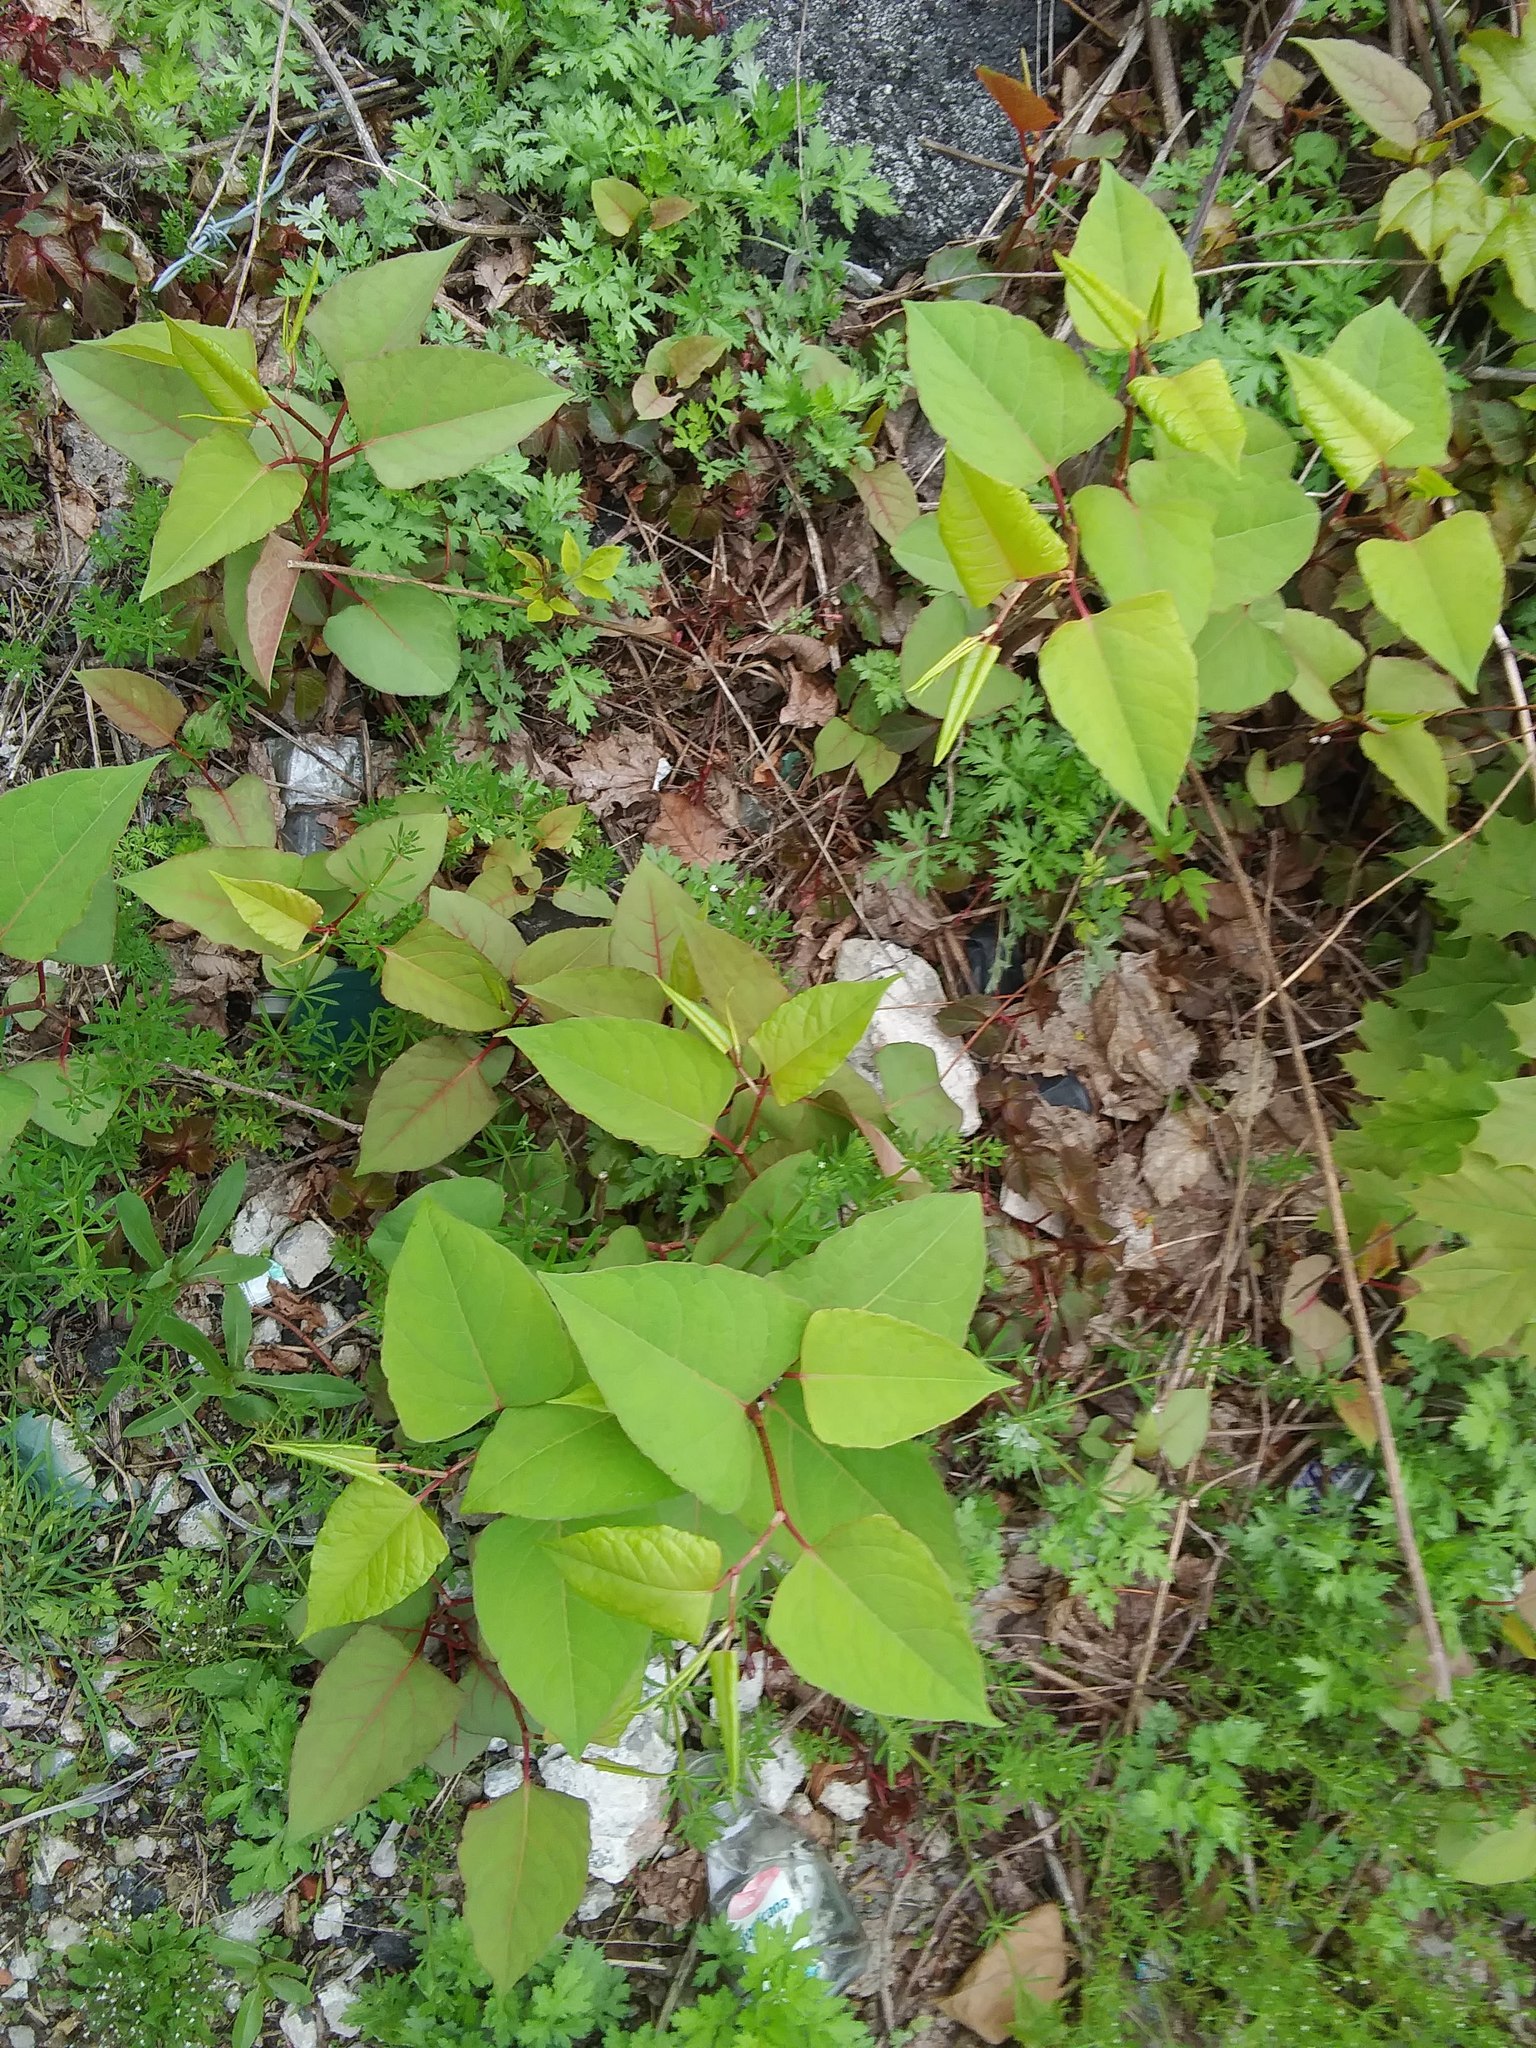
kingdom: Plantae
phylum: Tracheophyta
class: Magnoliopsida
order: Caryophyllales
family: Polygonaceae
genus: Reynoutria
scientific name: Reynoutria japonica
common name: Japanese knotweed
